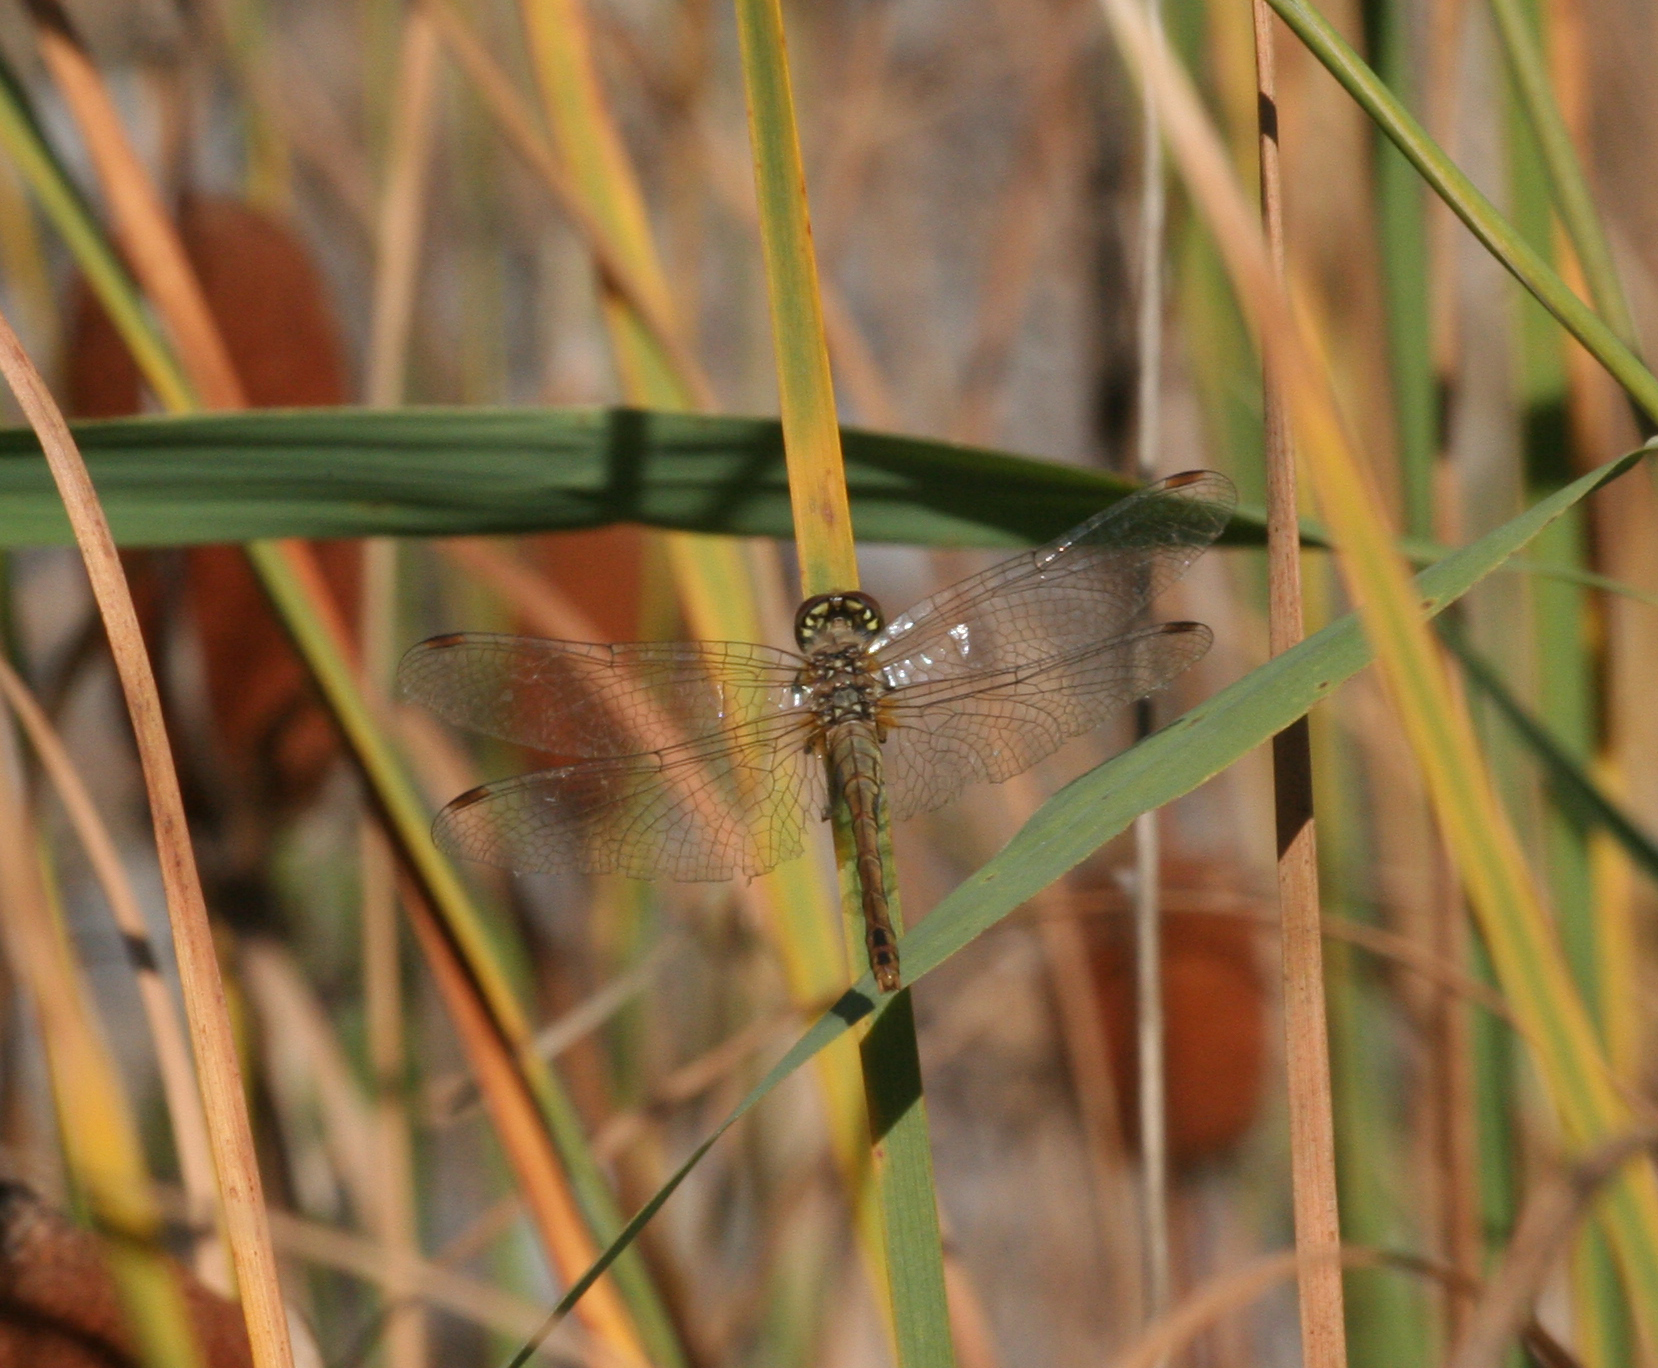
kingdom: Animalia
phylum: Arthropoda
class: Insecta
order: Odonata
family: Libellulidae
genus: Sympetrum
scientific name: Sympetrum sanguineum
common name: Ruddy darter
